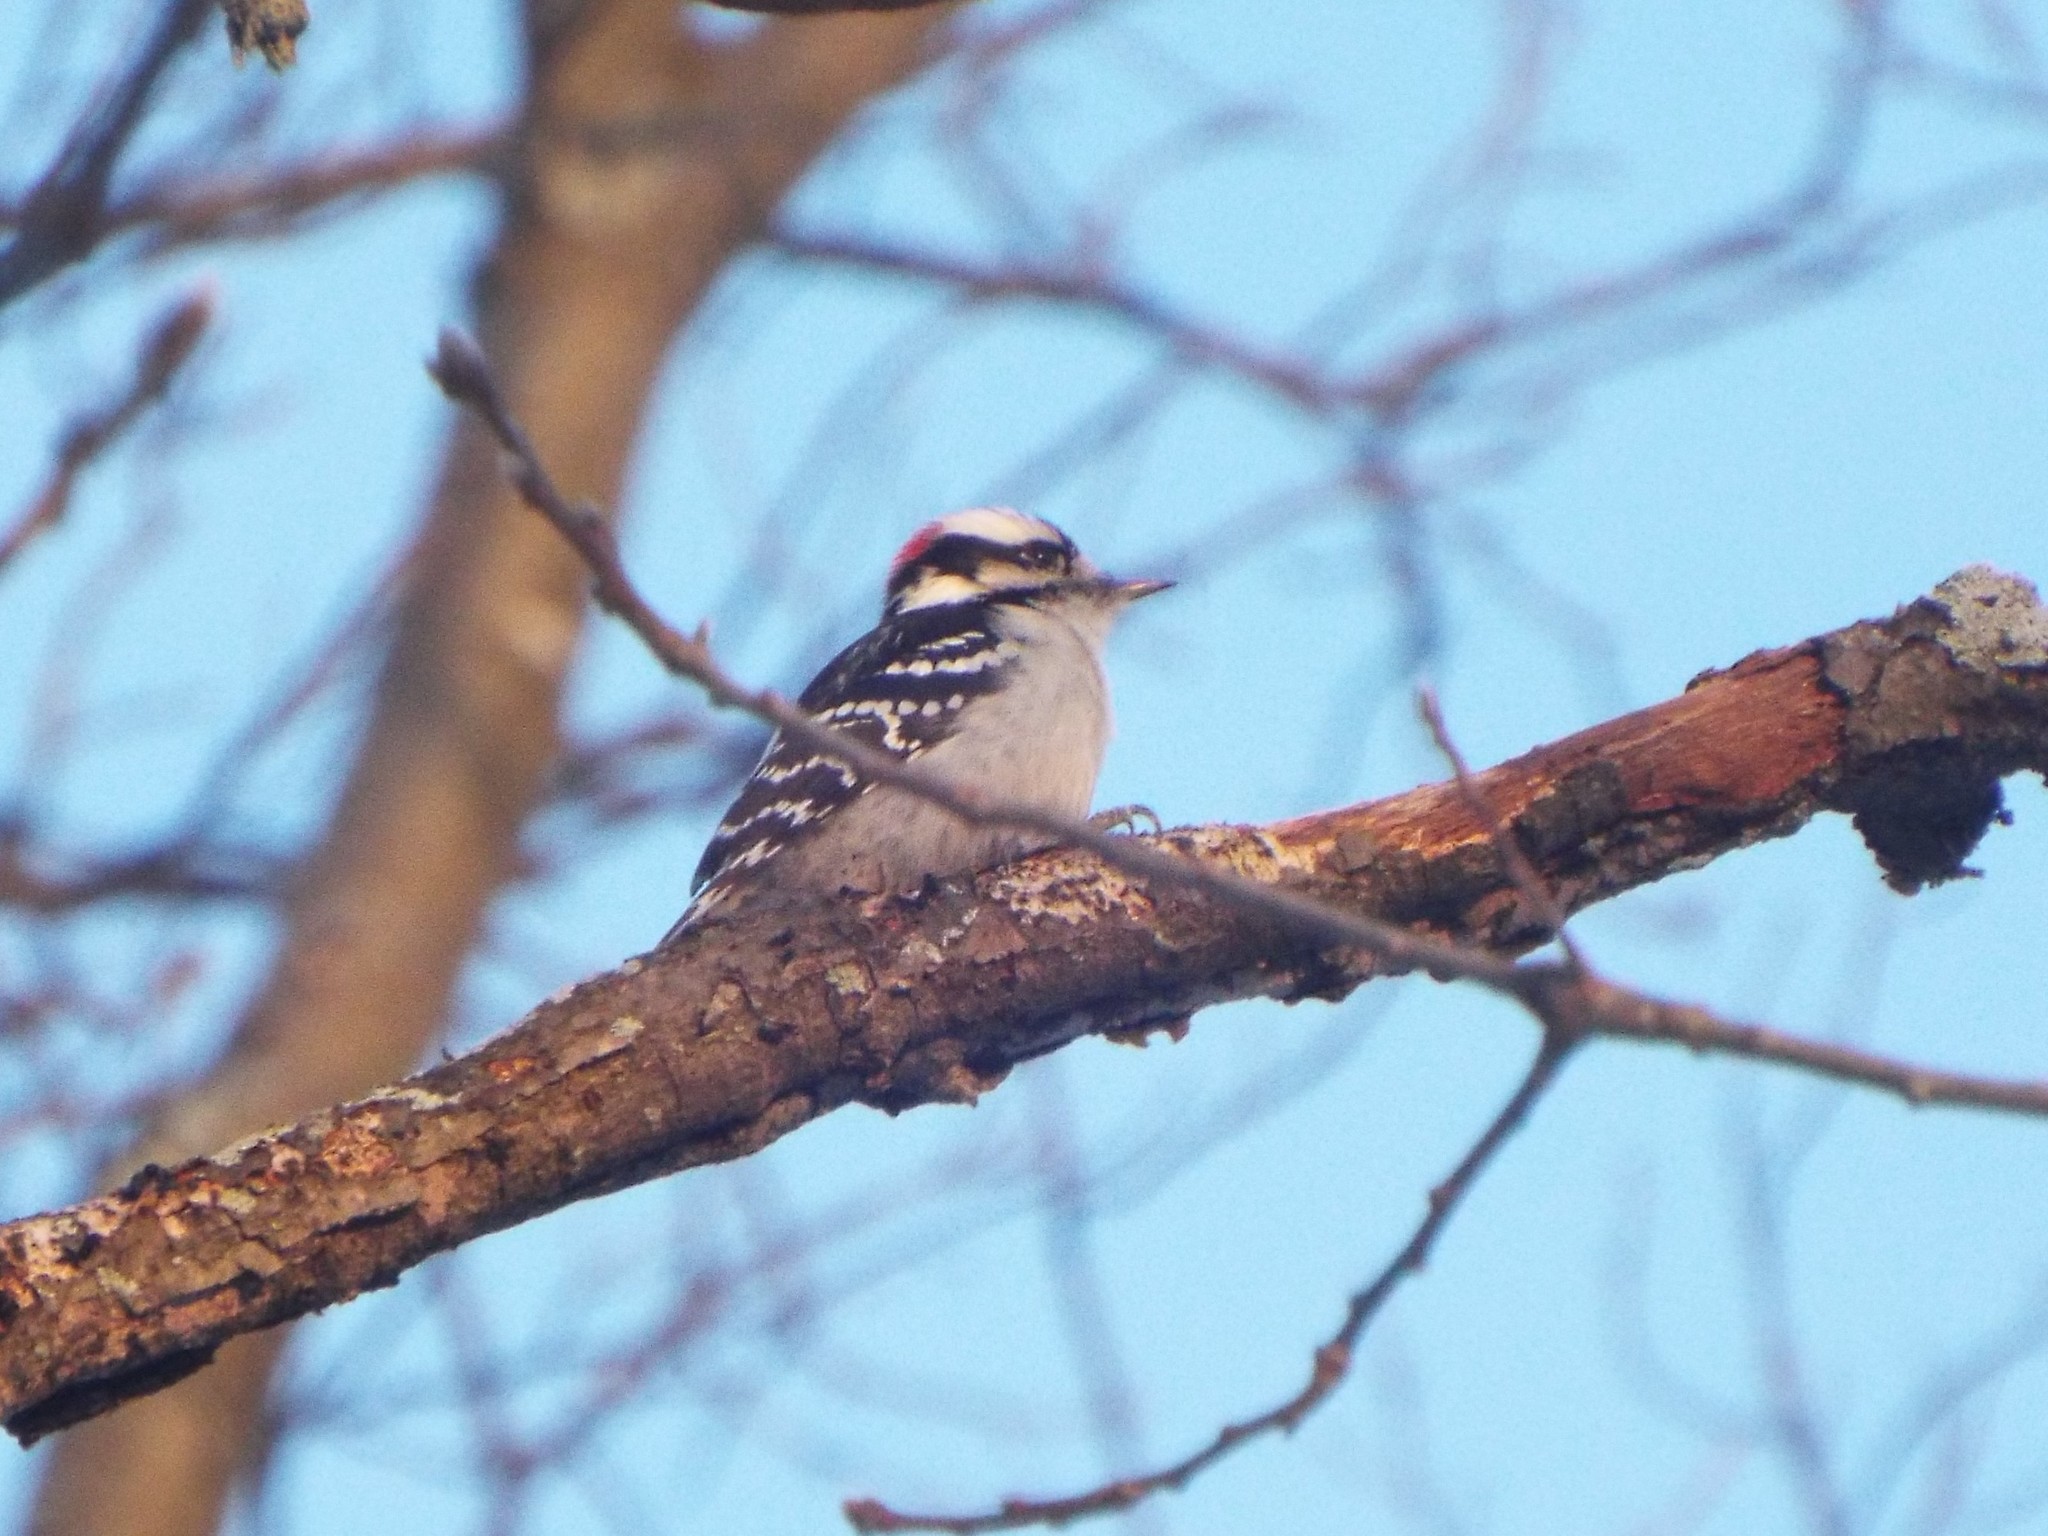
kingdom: Animalia
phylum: Chordata
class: Aves
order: Piciformes
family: Picidae
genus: Dryobates
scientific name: Dryobates pubescens
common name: Downy woodpecker
